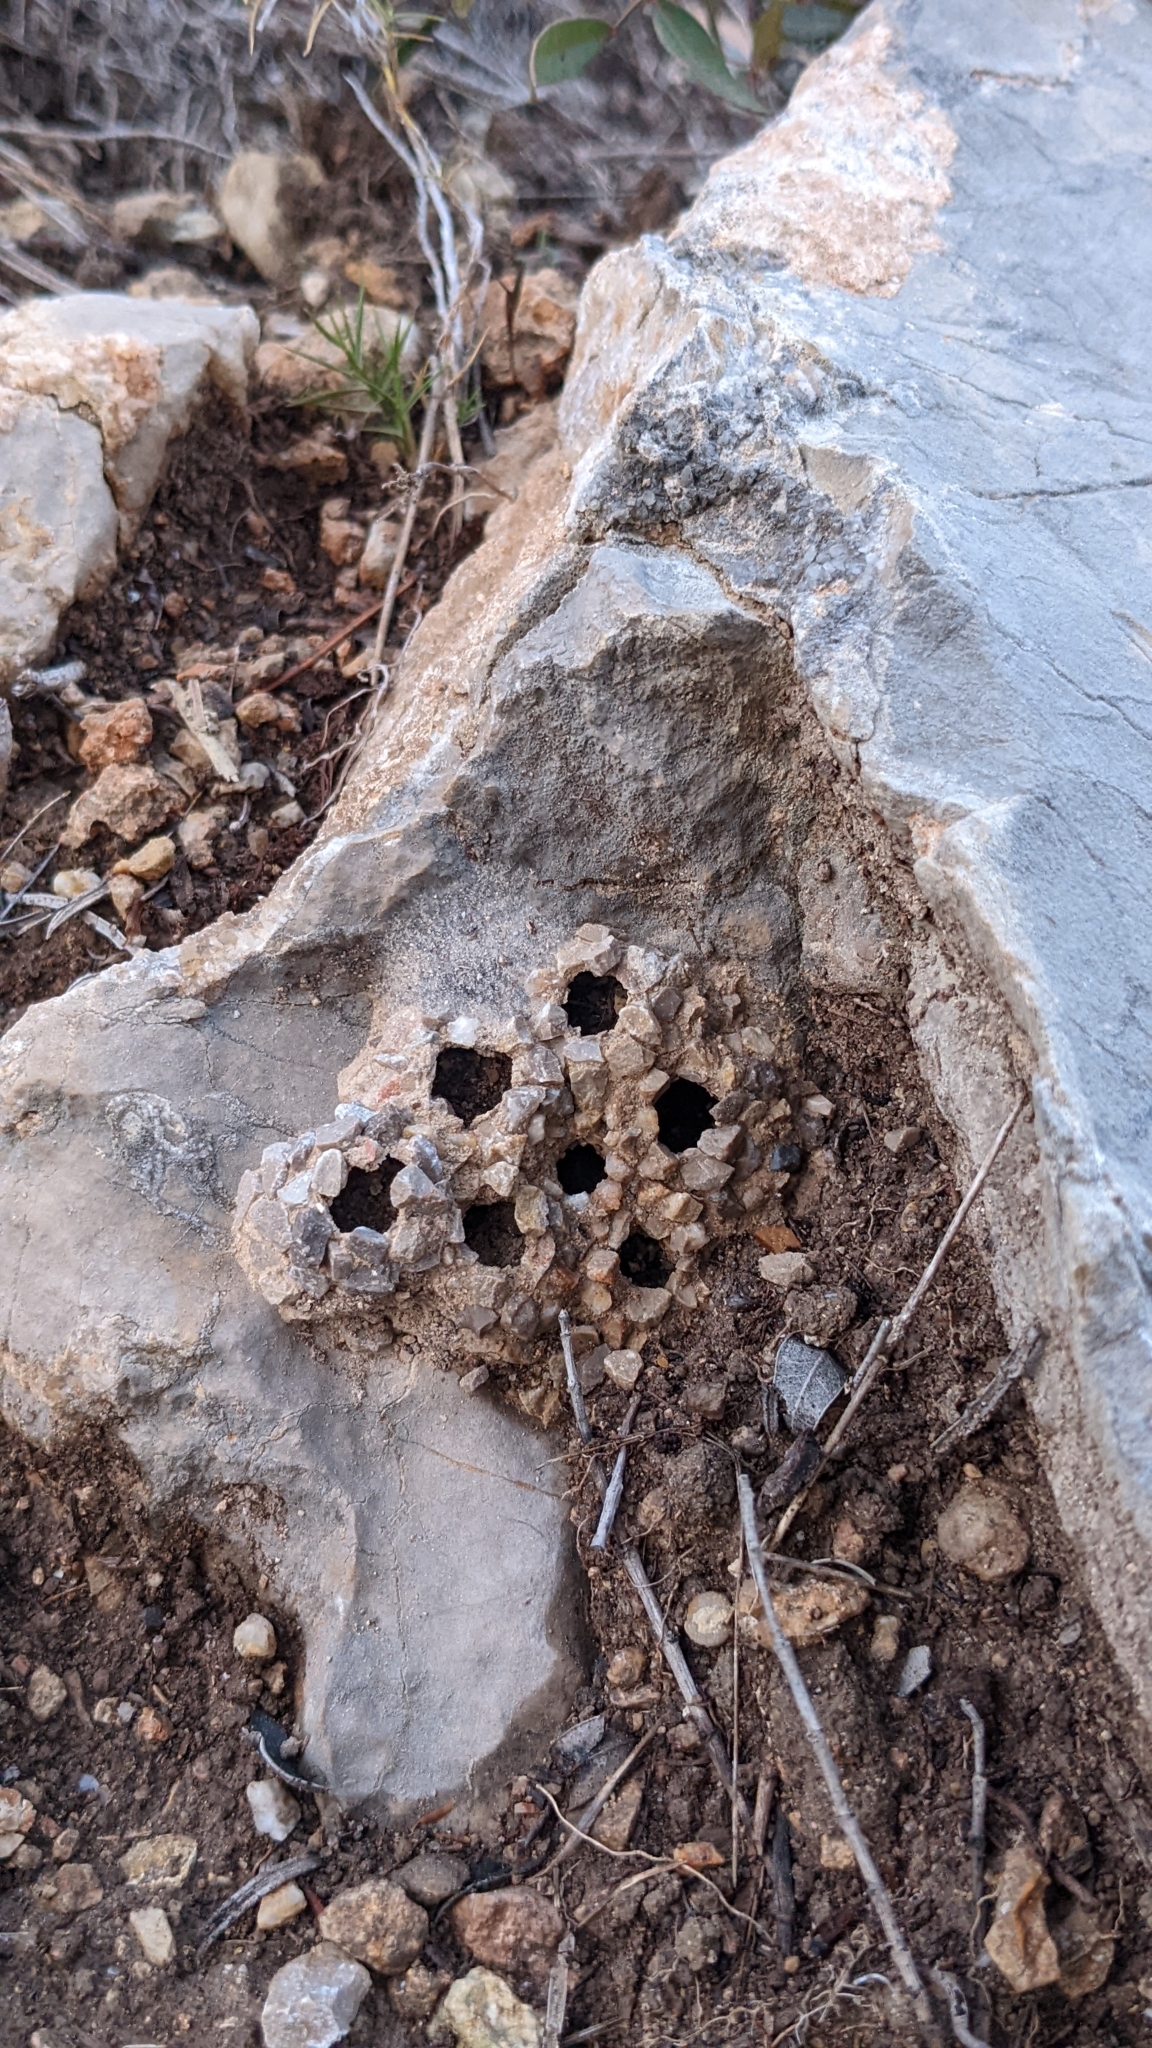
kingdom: Animalia
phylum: Arthropoda
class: Insecta
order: Hymenoptera
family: Eumenidae
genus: Katamenes
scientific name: Katamenes
